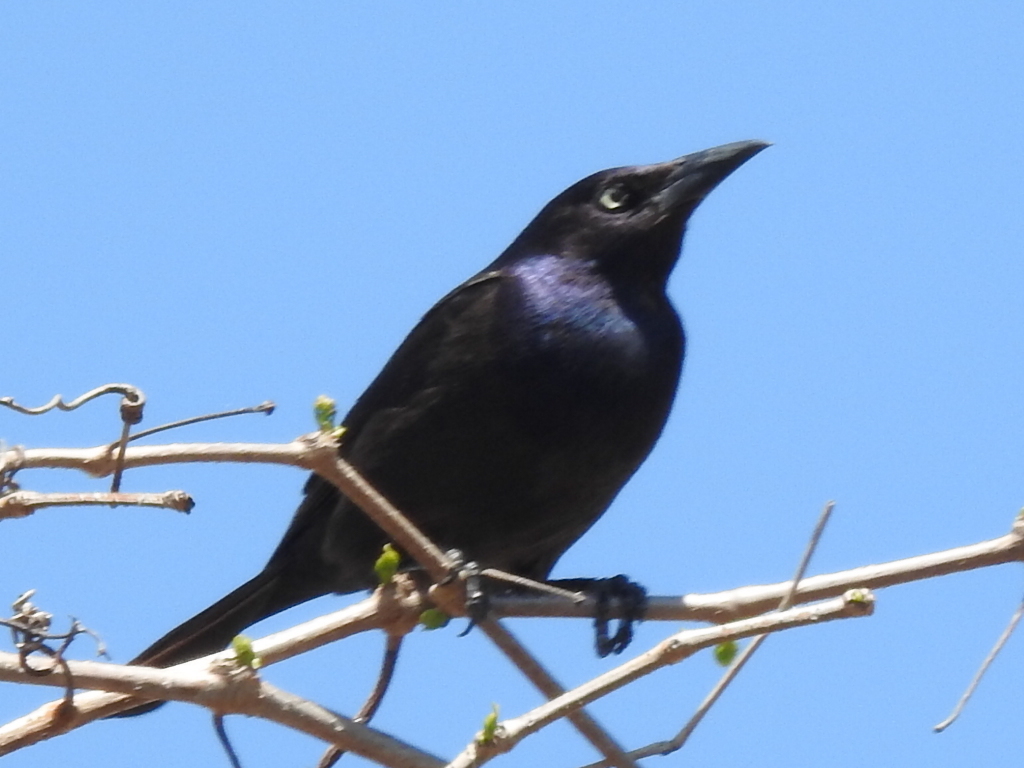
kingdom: Animalia
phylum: Chordata
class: Aves
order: Passeriformes
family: Icteridae
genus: Quiscalus
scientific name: Quiscalus quiscula
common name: Common grackle
